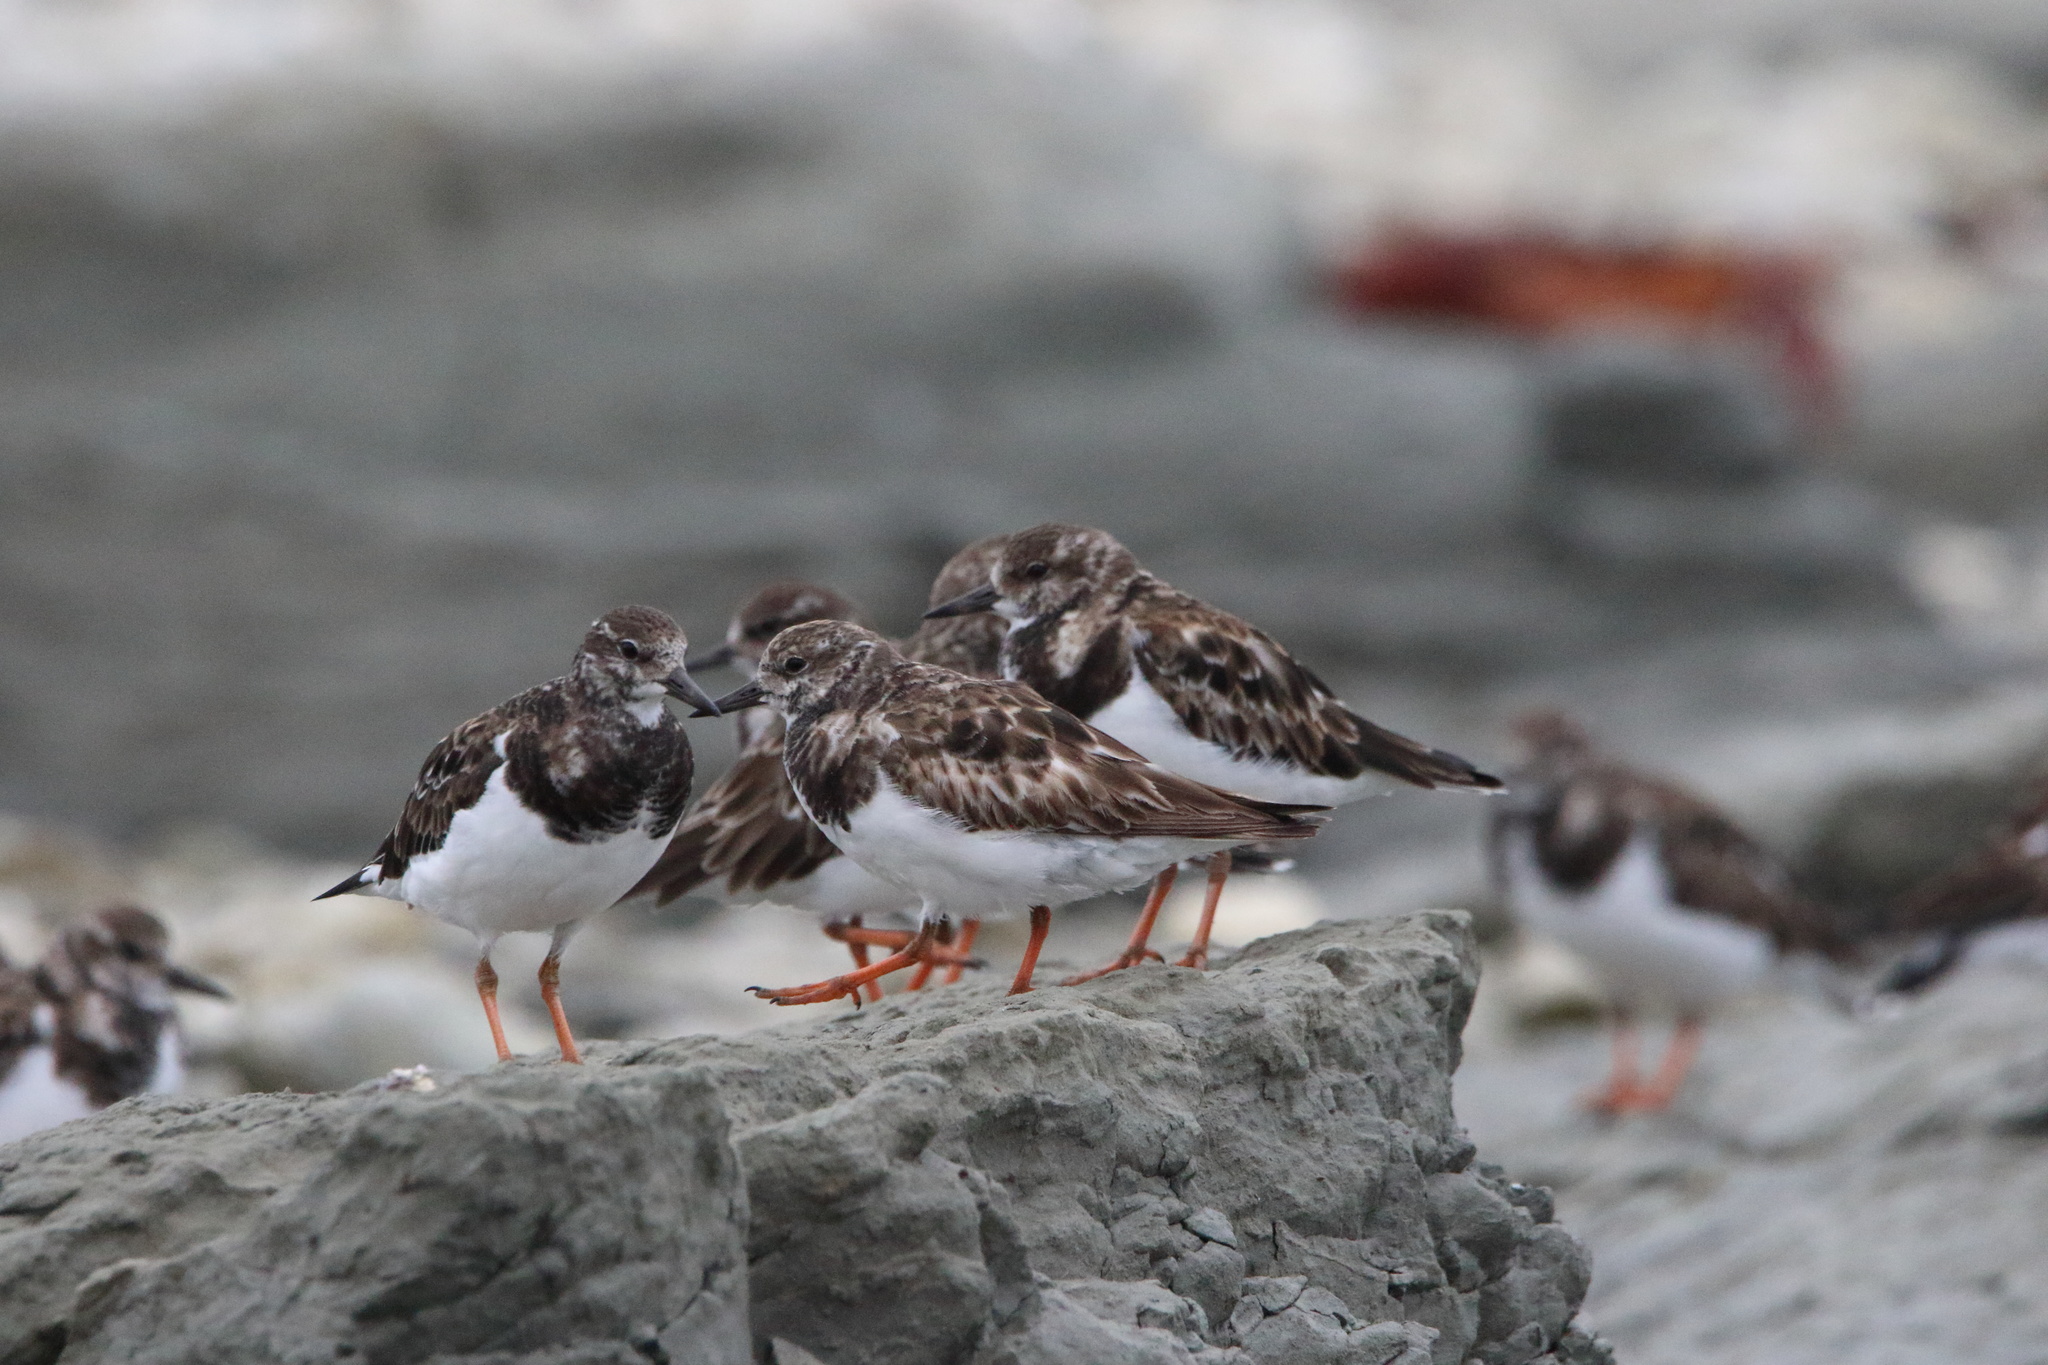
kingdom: Animalia
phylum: Chordata
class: Aves
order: Charadriiformes
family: Scolopacidae
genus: Arenaria
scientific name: Arenaria interpres
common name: Ruddy turnstone
